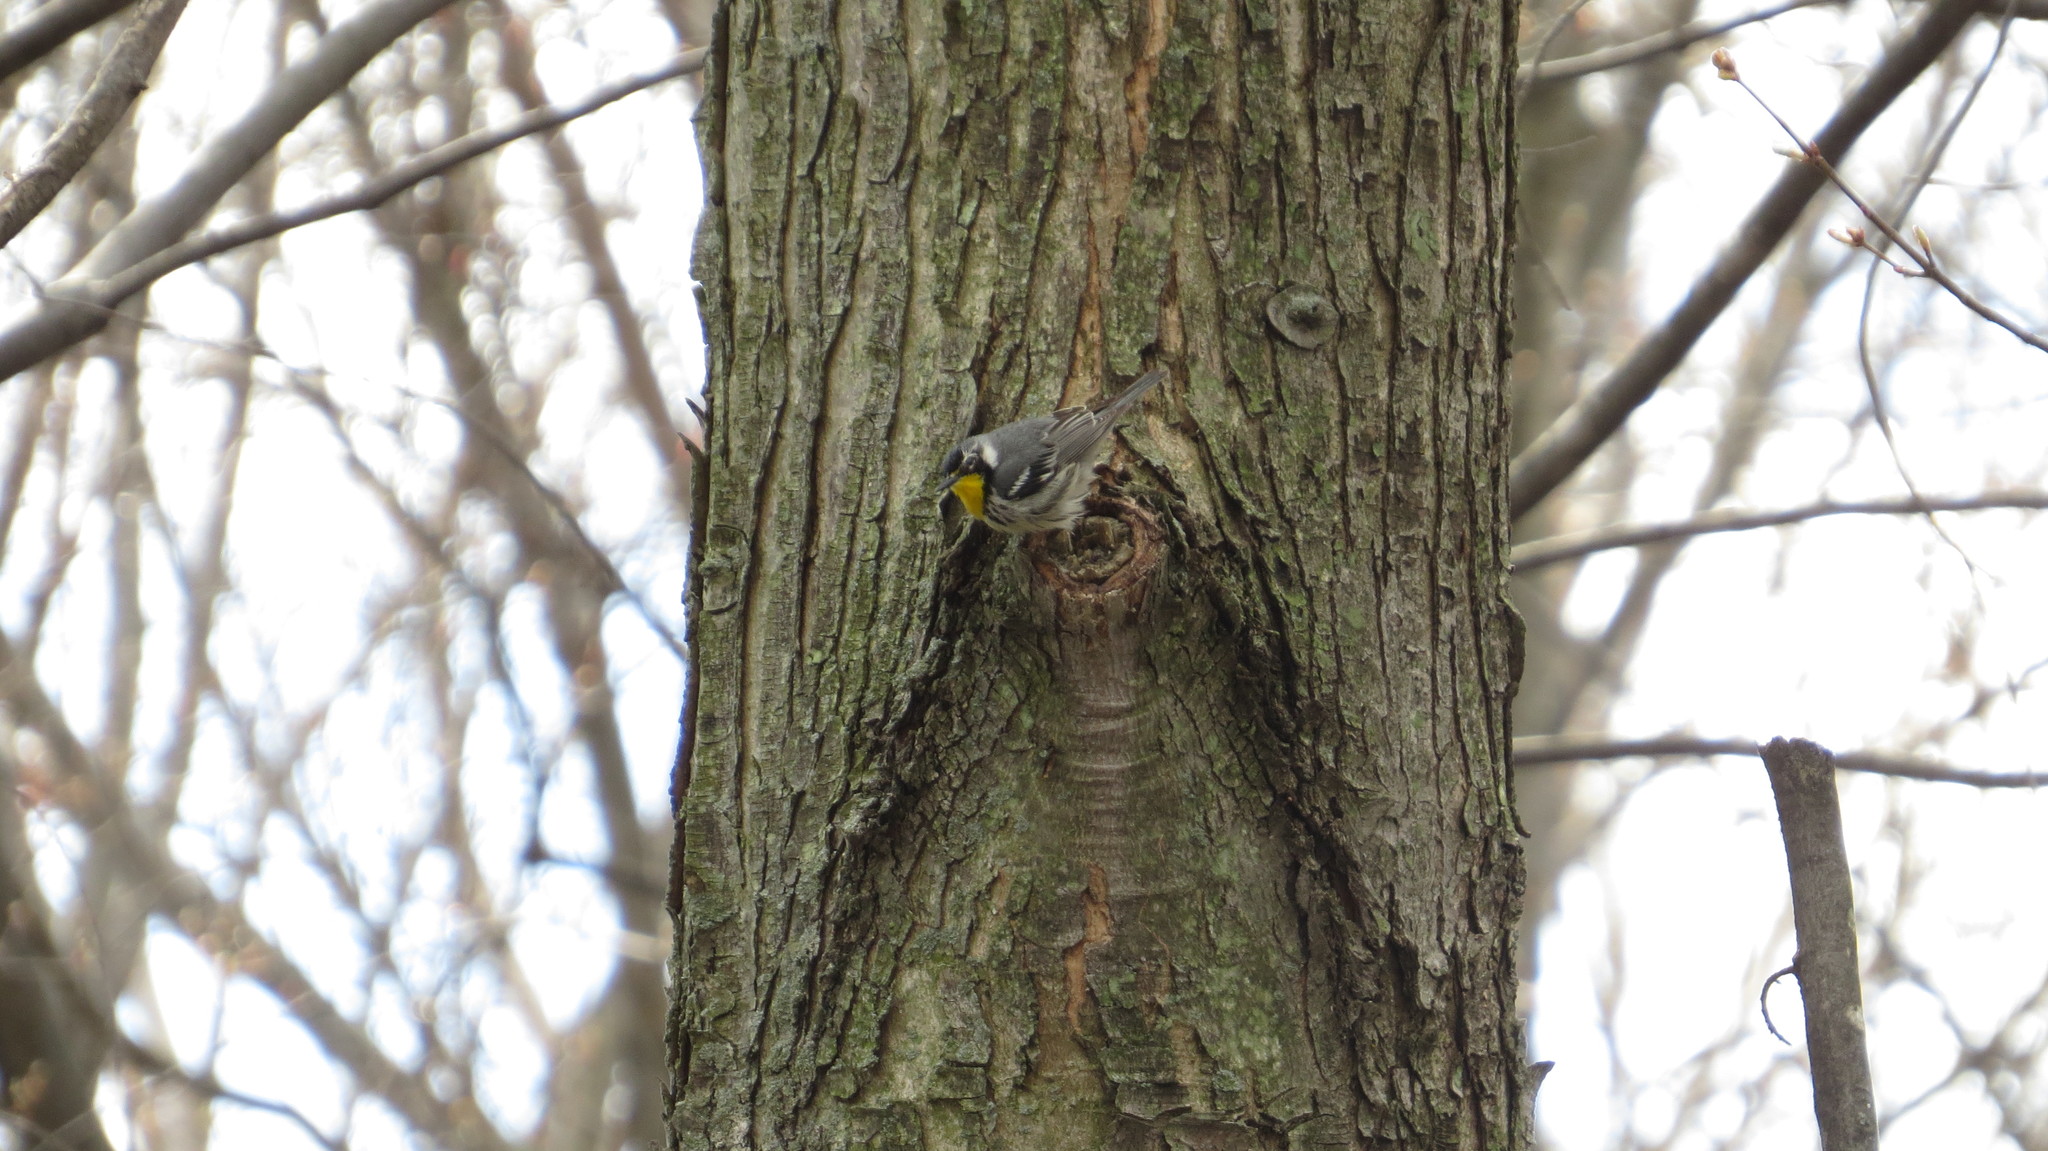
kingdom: Animalia
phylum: Chordata
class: Aves
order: Passeriformes
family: Parulidae
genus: Setophaga
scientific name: Setophaga dominica
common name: Yellow-throated warbler
